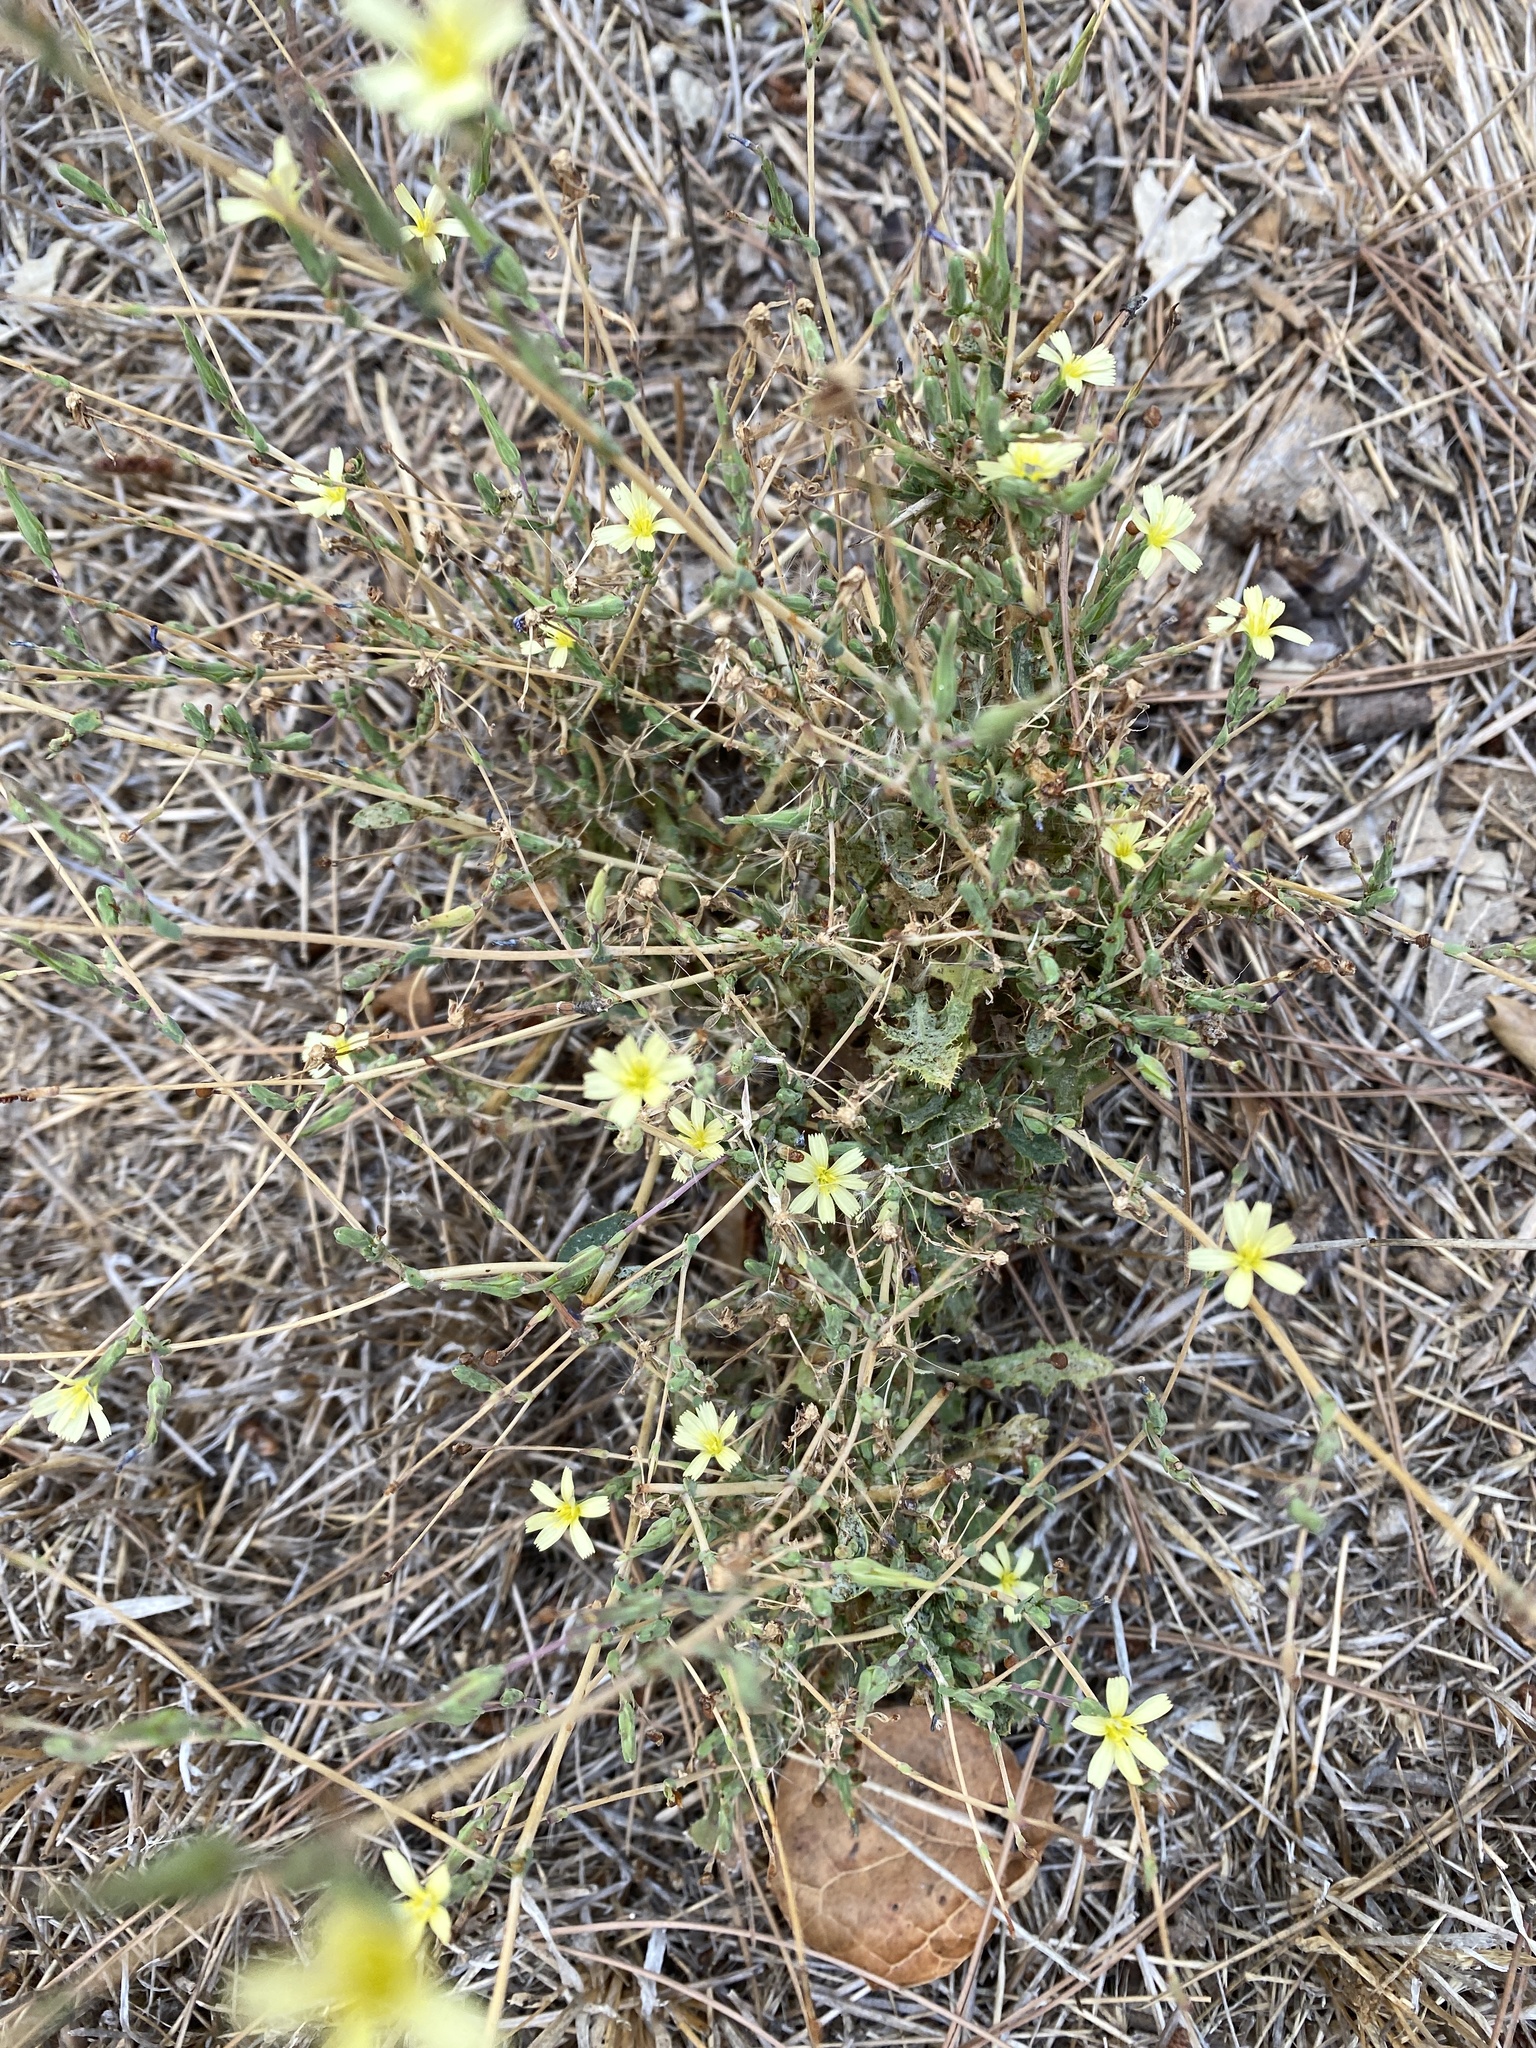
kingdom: Plantae
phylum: Tracheophyta
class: Magnoliopsida
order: Asterales
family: Asteraceae
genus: Lactuca
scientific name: Lactuca saligna
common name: Wild lettuce
